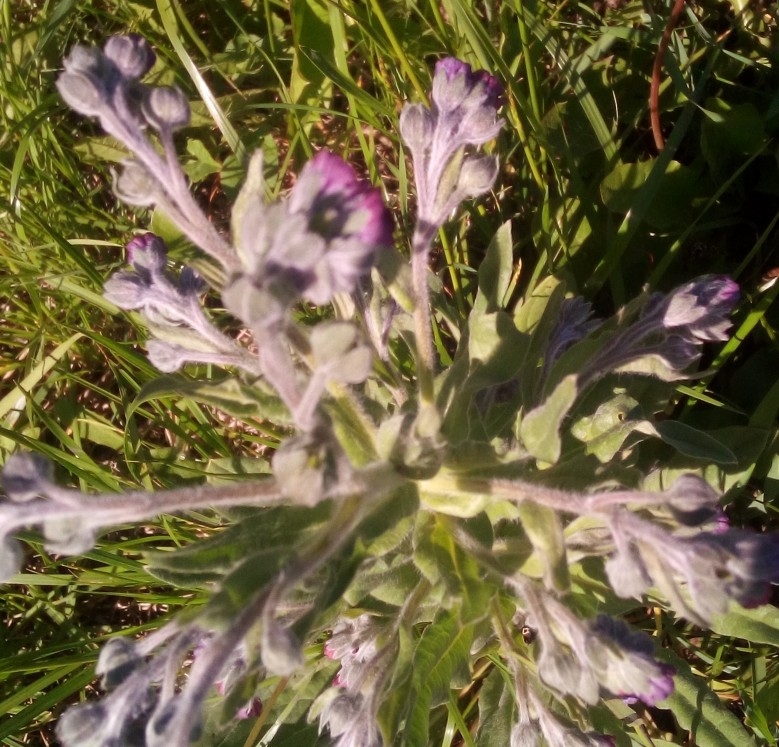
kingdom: Plantae
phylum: Tracheophyta
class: Magnoliopsida
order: Boraginales
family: Boraginaceae
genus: Cynoglossum
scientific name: Cynoglossum officinale
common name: Hound's-tongue
